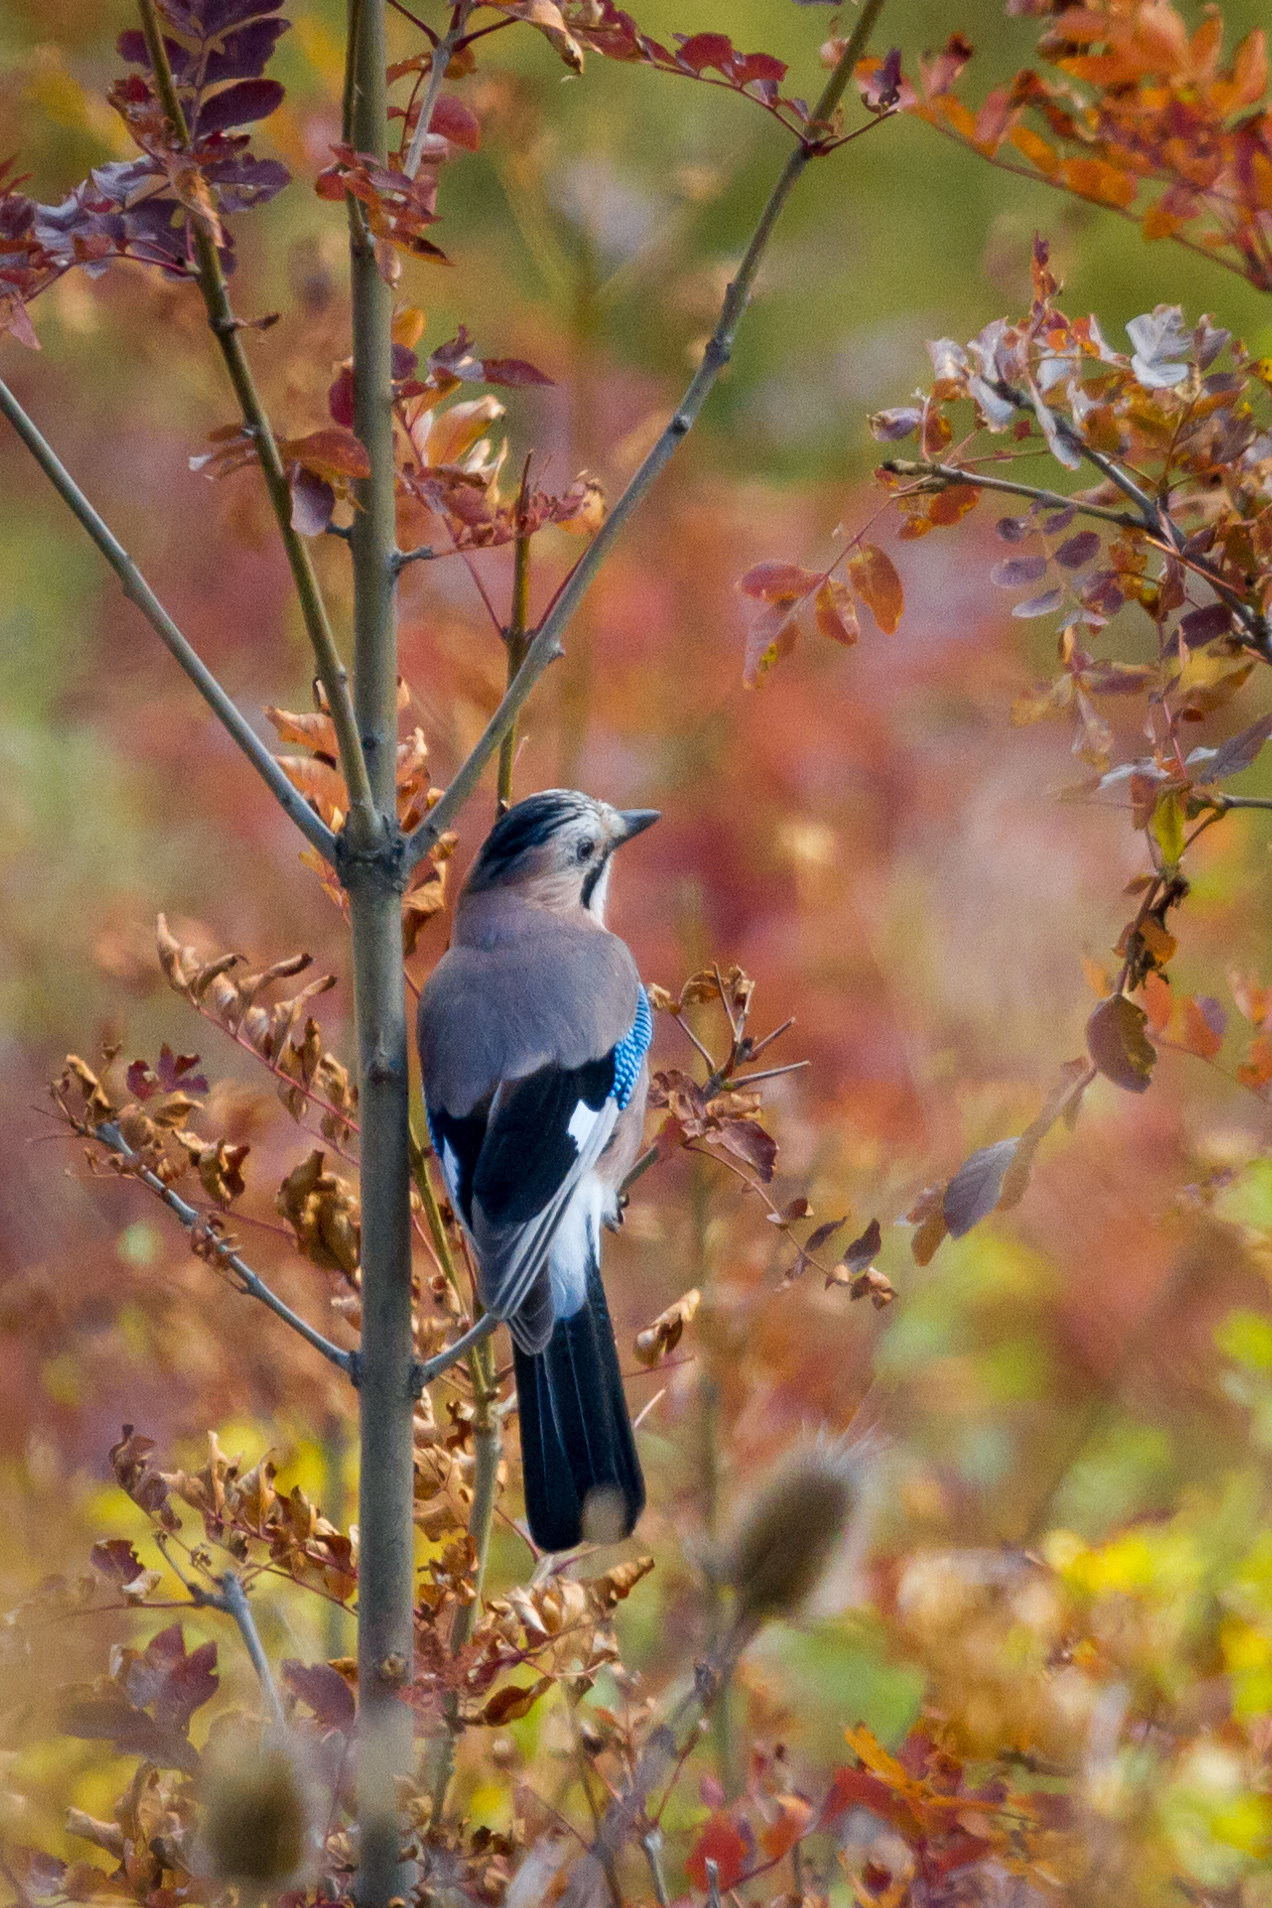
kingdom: Animalia
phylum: Chordata
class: Aves
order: Passeriformes
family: Corvidae
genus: Garrulus
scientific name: Garrulus glandarius
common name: Eurasian jay
